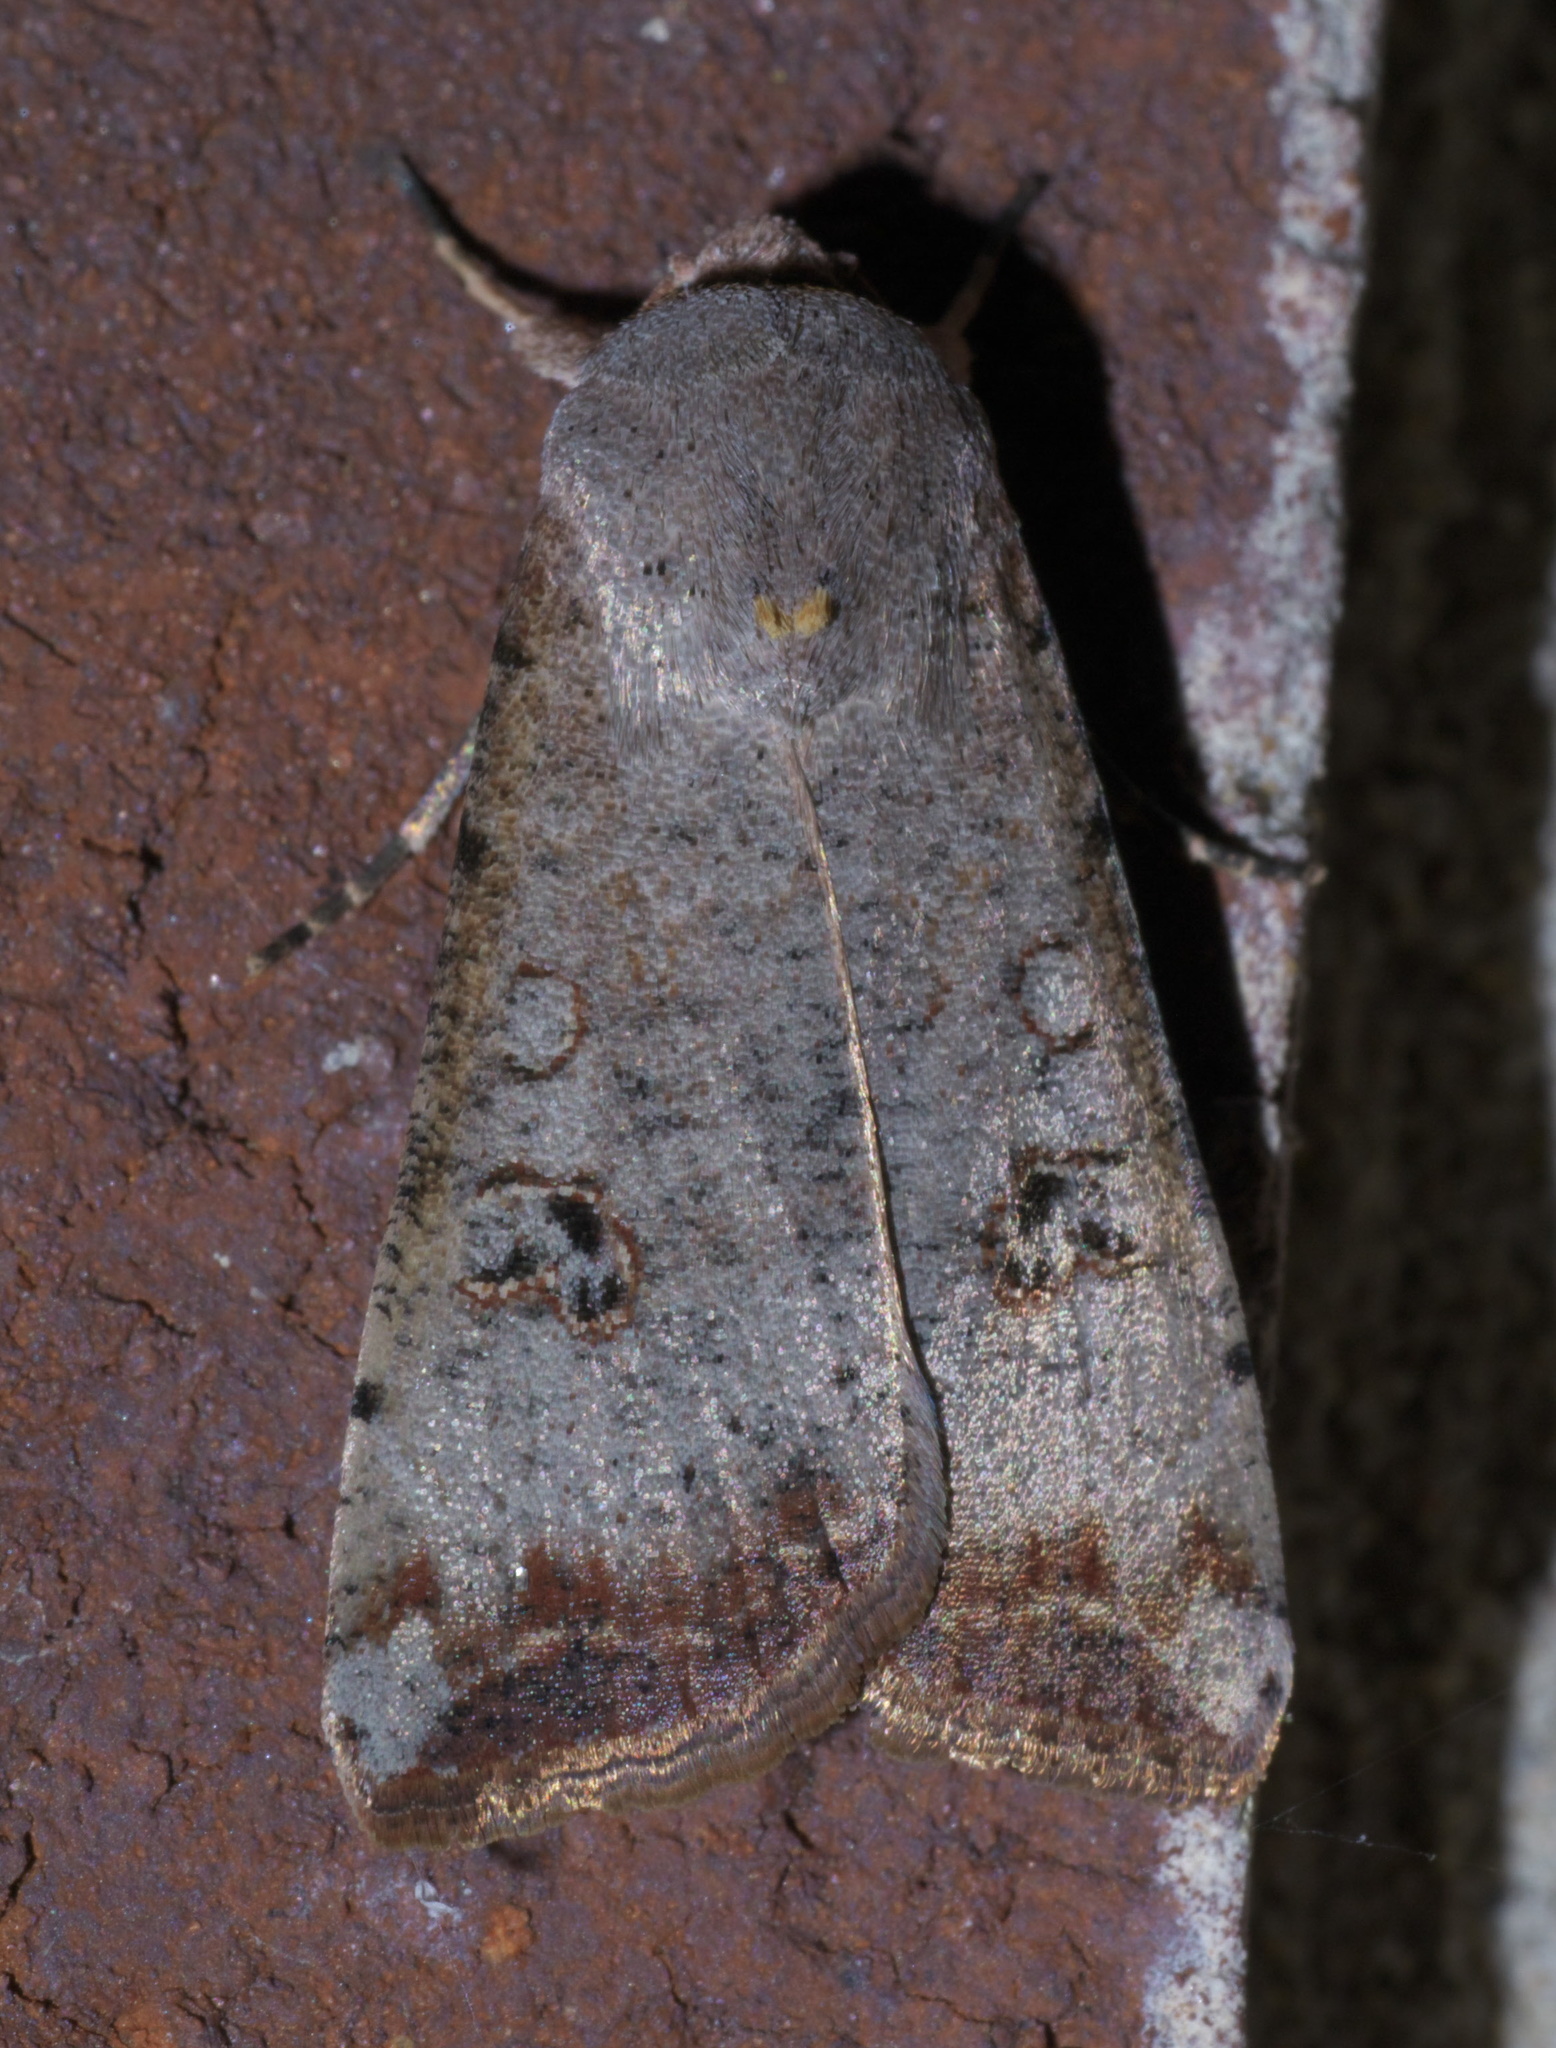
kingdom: Animalia
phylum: Arthropoda
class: Insecta
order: Lepidoptera
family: Noctuidae
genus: Anicla
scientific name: Anicla infecta
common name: Green cutworm
